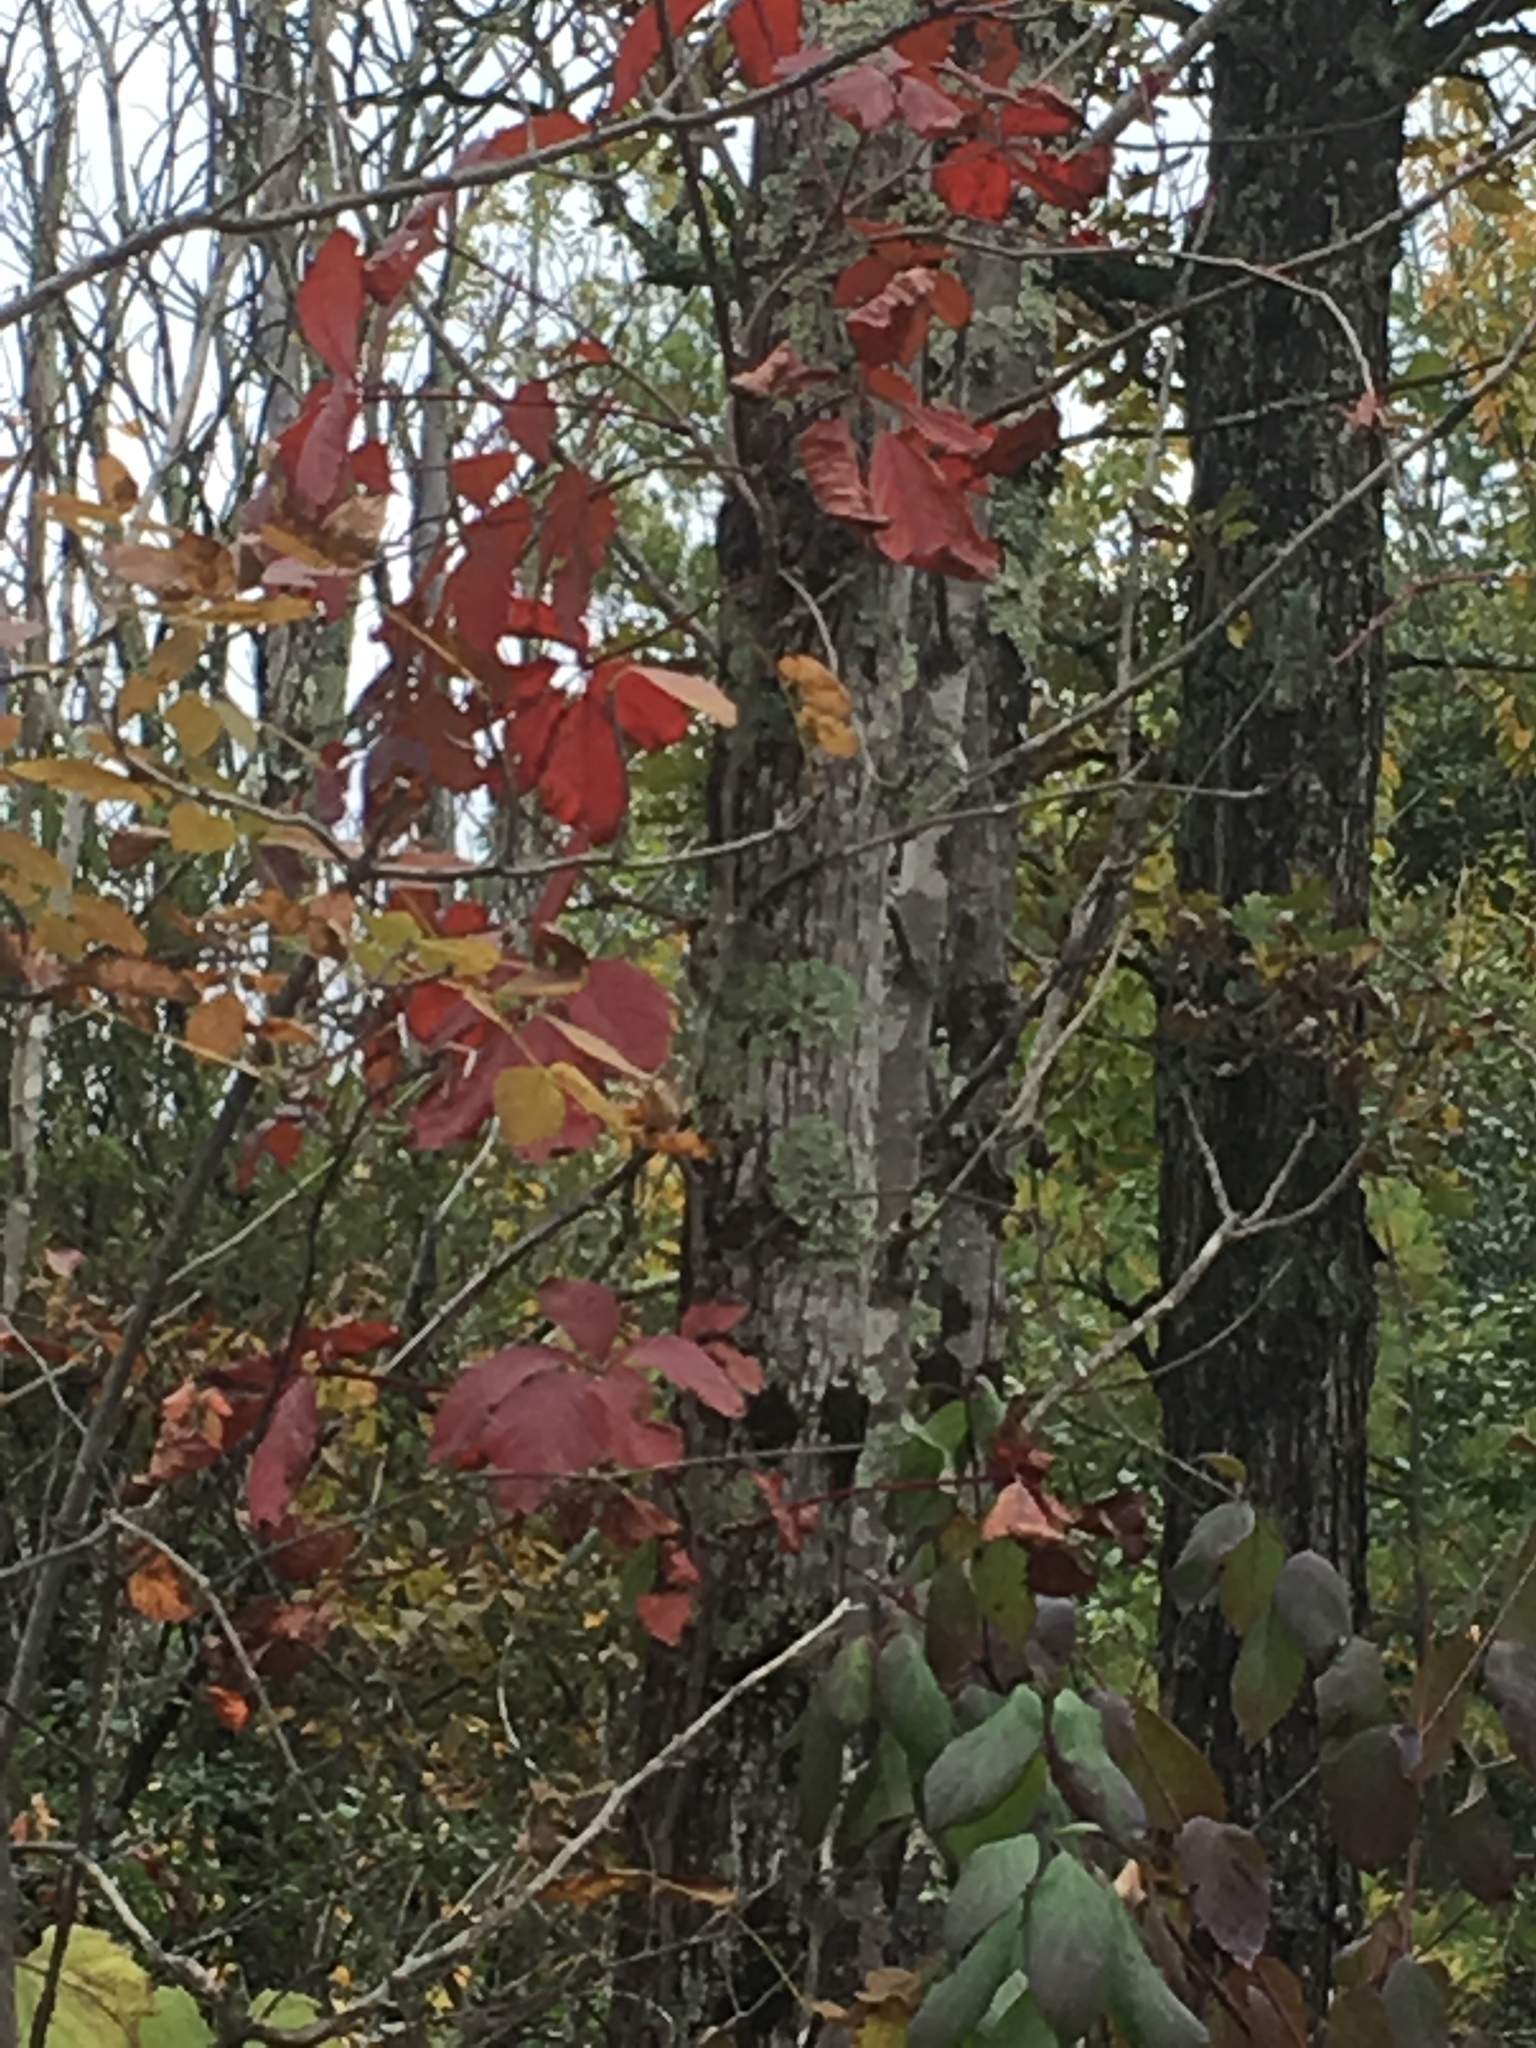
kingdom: Plantae
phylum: Tracheophyta
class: Magnoliopsida
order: Vitales
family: Vitaceae
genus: Parthenocissus
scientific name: Parthenocissus inserta
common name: False virginia-creeper
